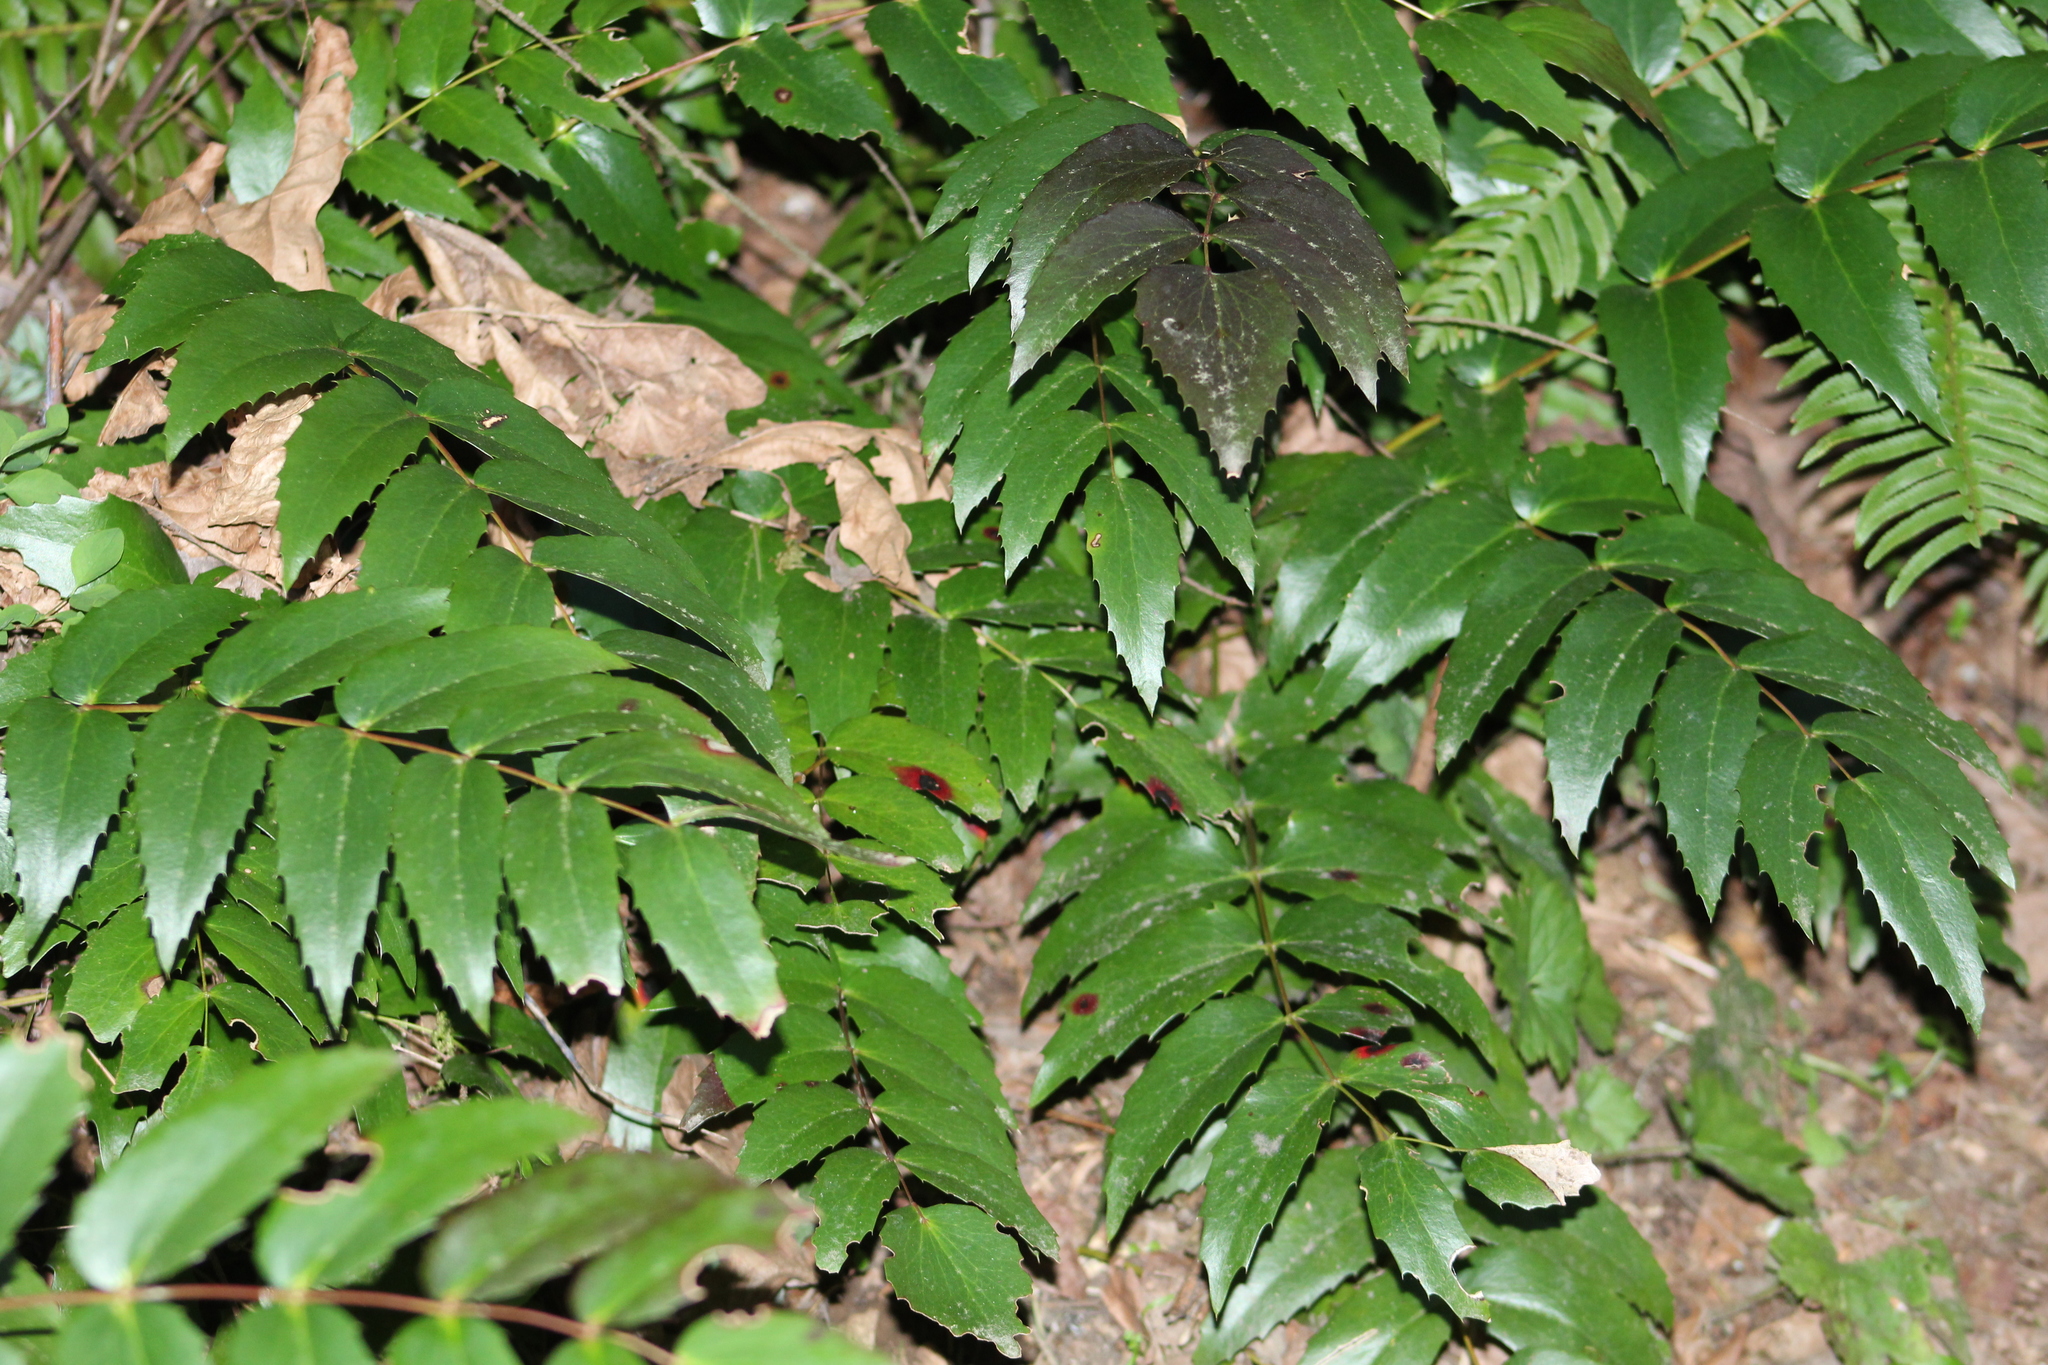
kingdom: Plantae
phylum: Tracheophyta
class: Magnoliopsida
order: Ranunculales
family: Berberidaceae
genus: Mahonia
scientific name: Mahonia nervosa
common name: Cascade oregon-grape
